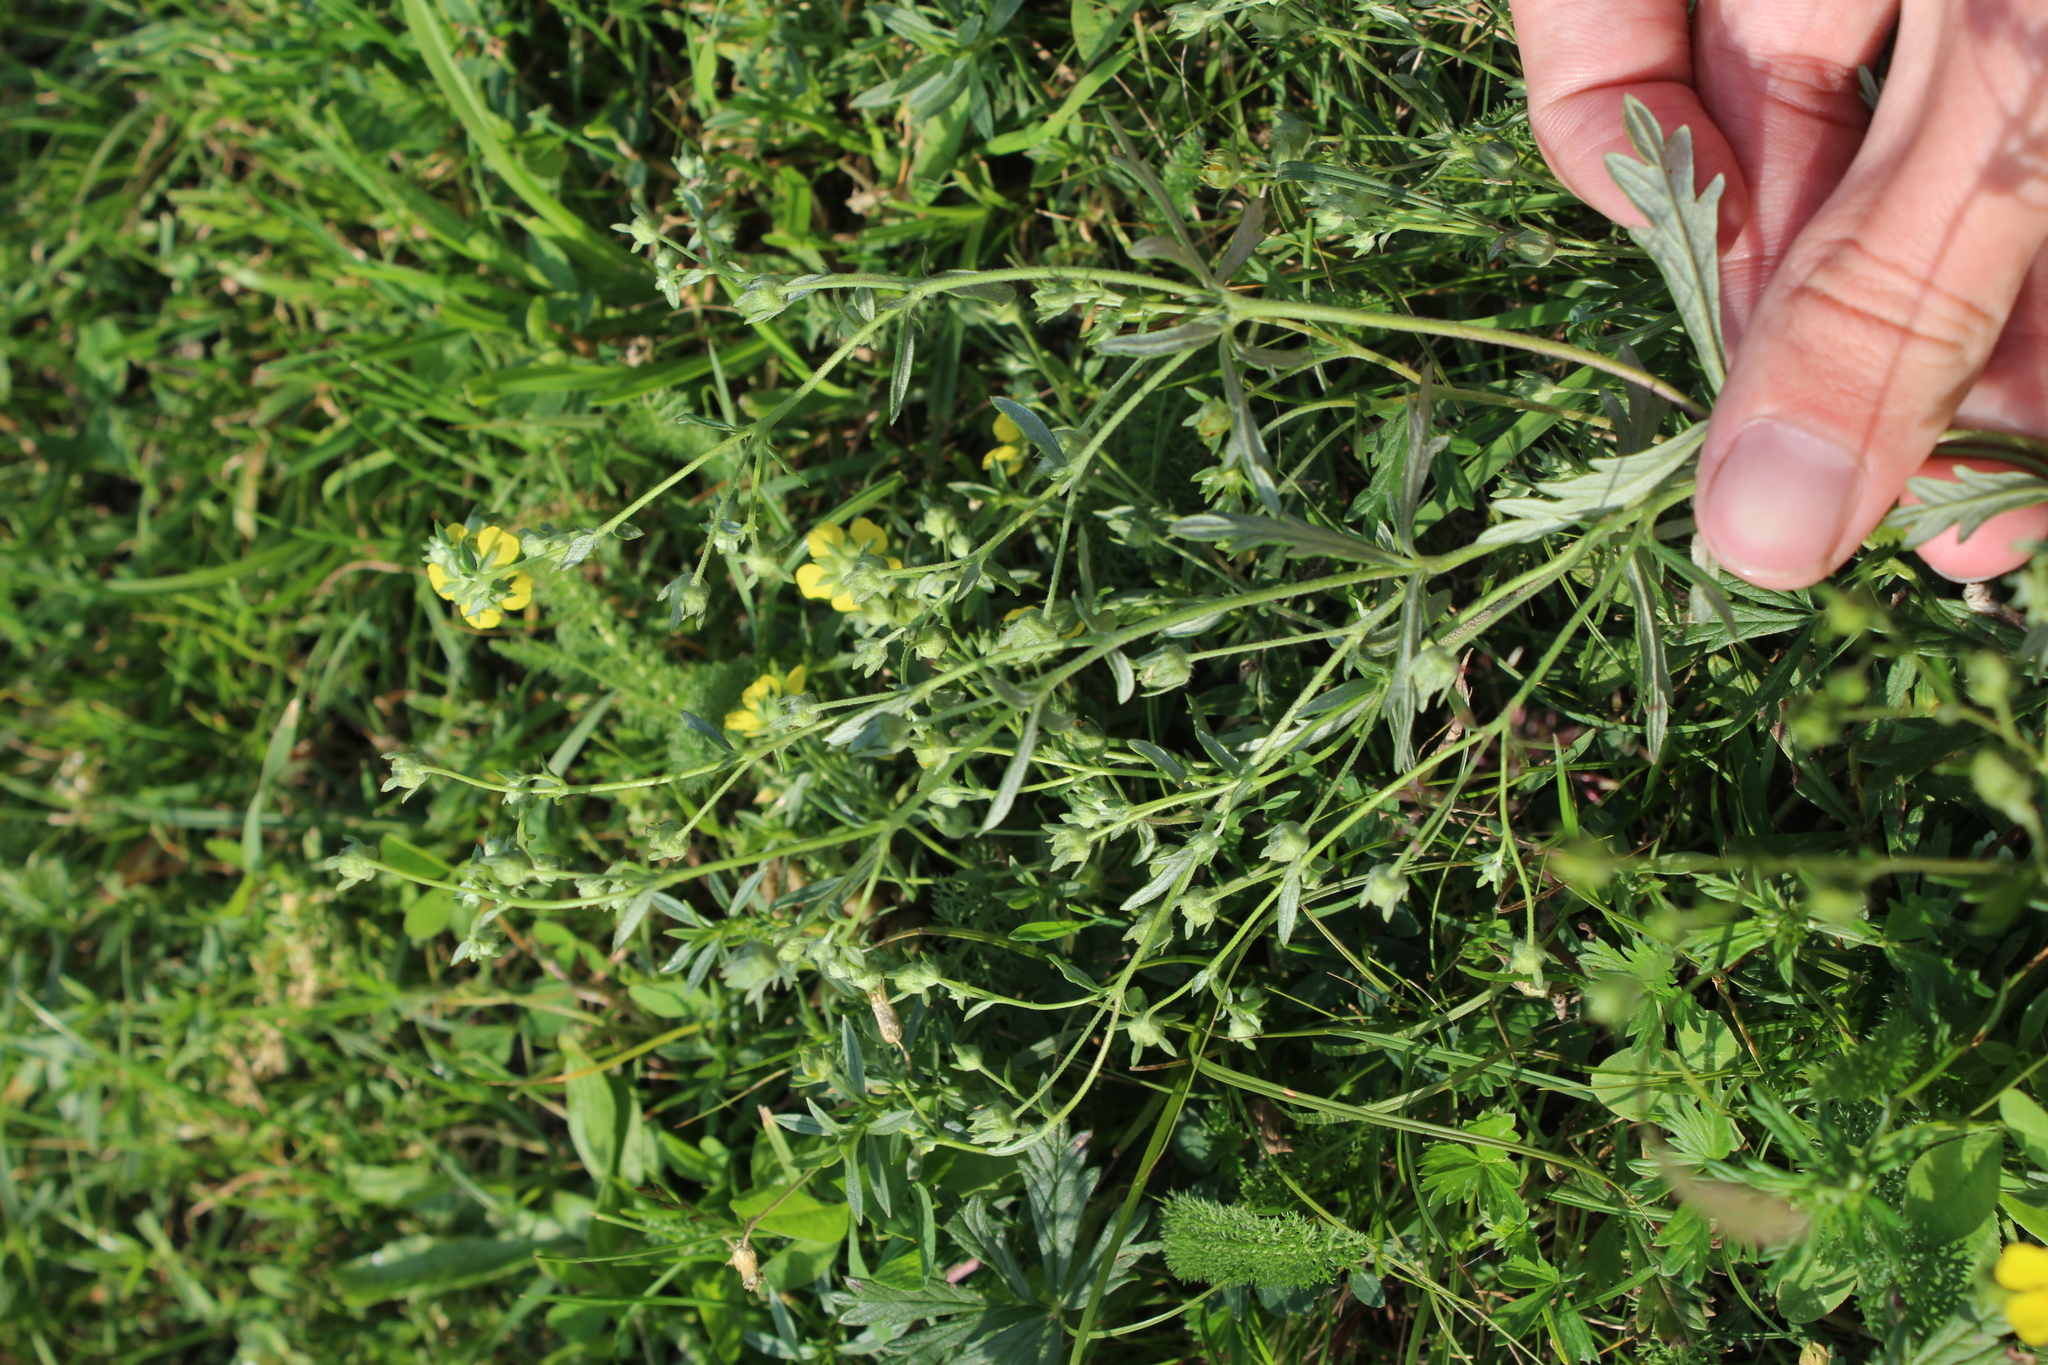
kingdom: Plantae
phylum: Tracheophyta
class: Magnoliopsida
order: Rosales
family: Rosaceae
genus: Potentilla
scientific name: Potentilla argentea
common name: Hoary cinquefoil
